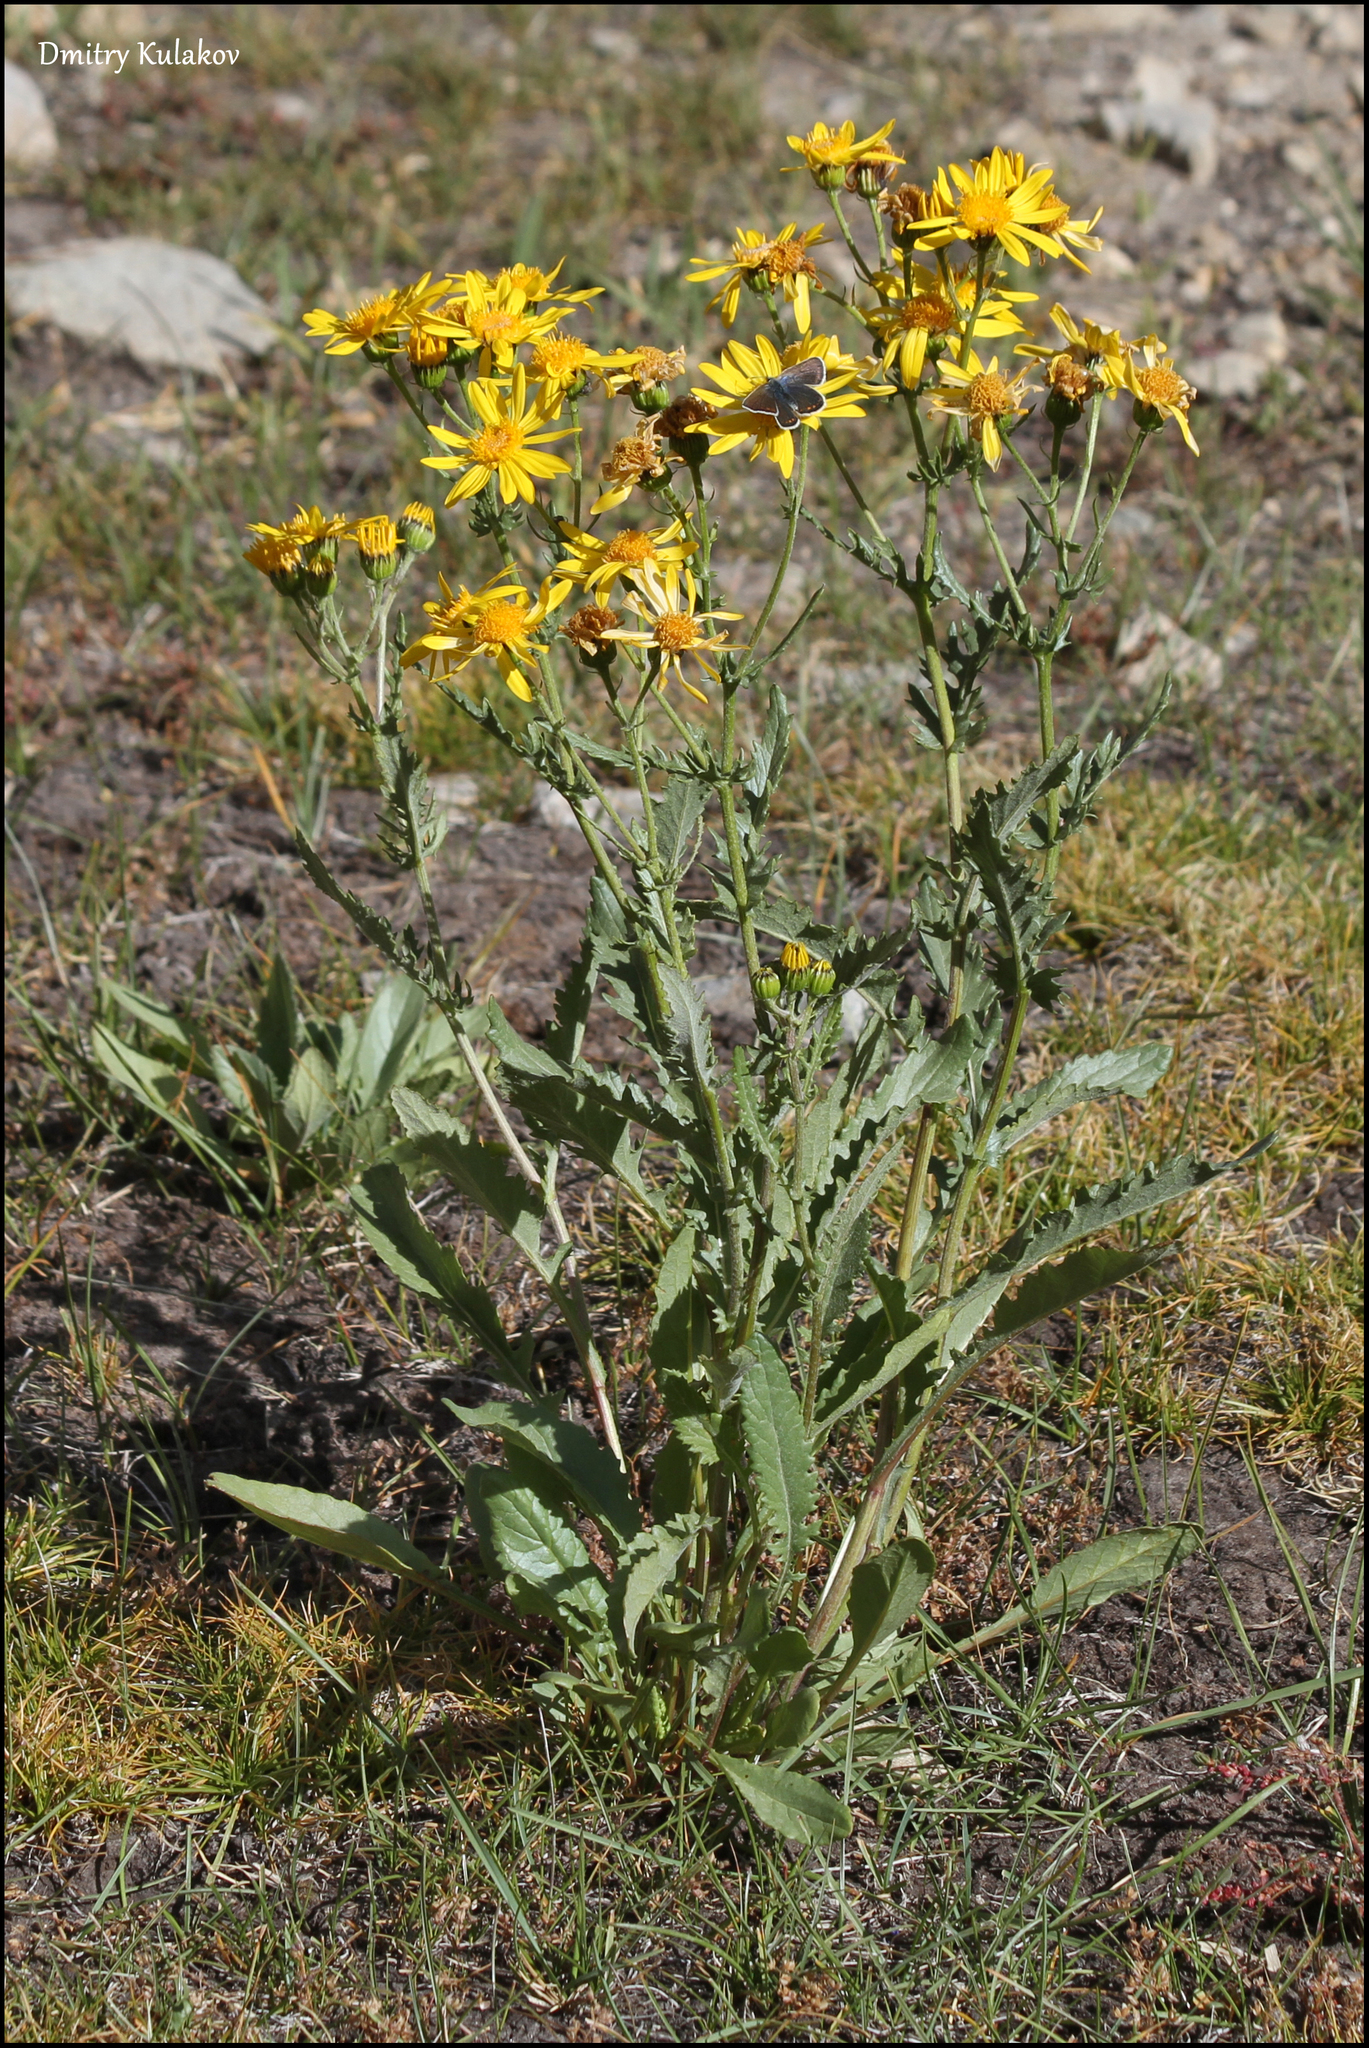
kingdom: Plantae
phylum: Tracheophyta
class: Magnoliopsida
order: Asterales
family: Asteraceae
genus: Senecio
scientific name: Senecio olgae
